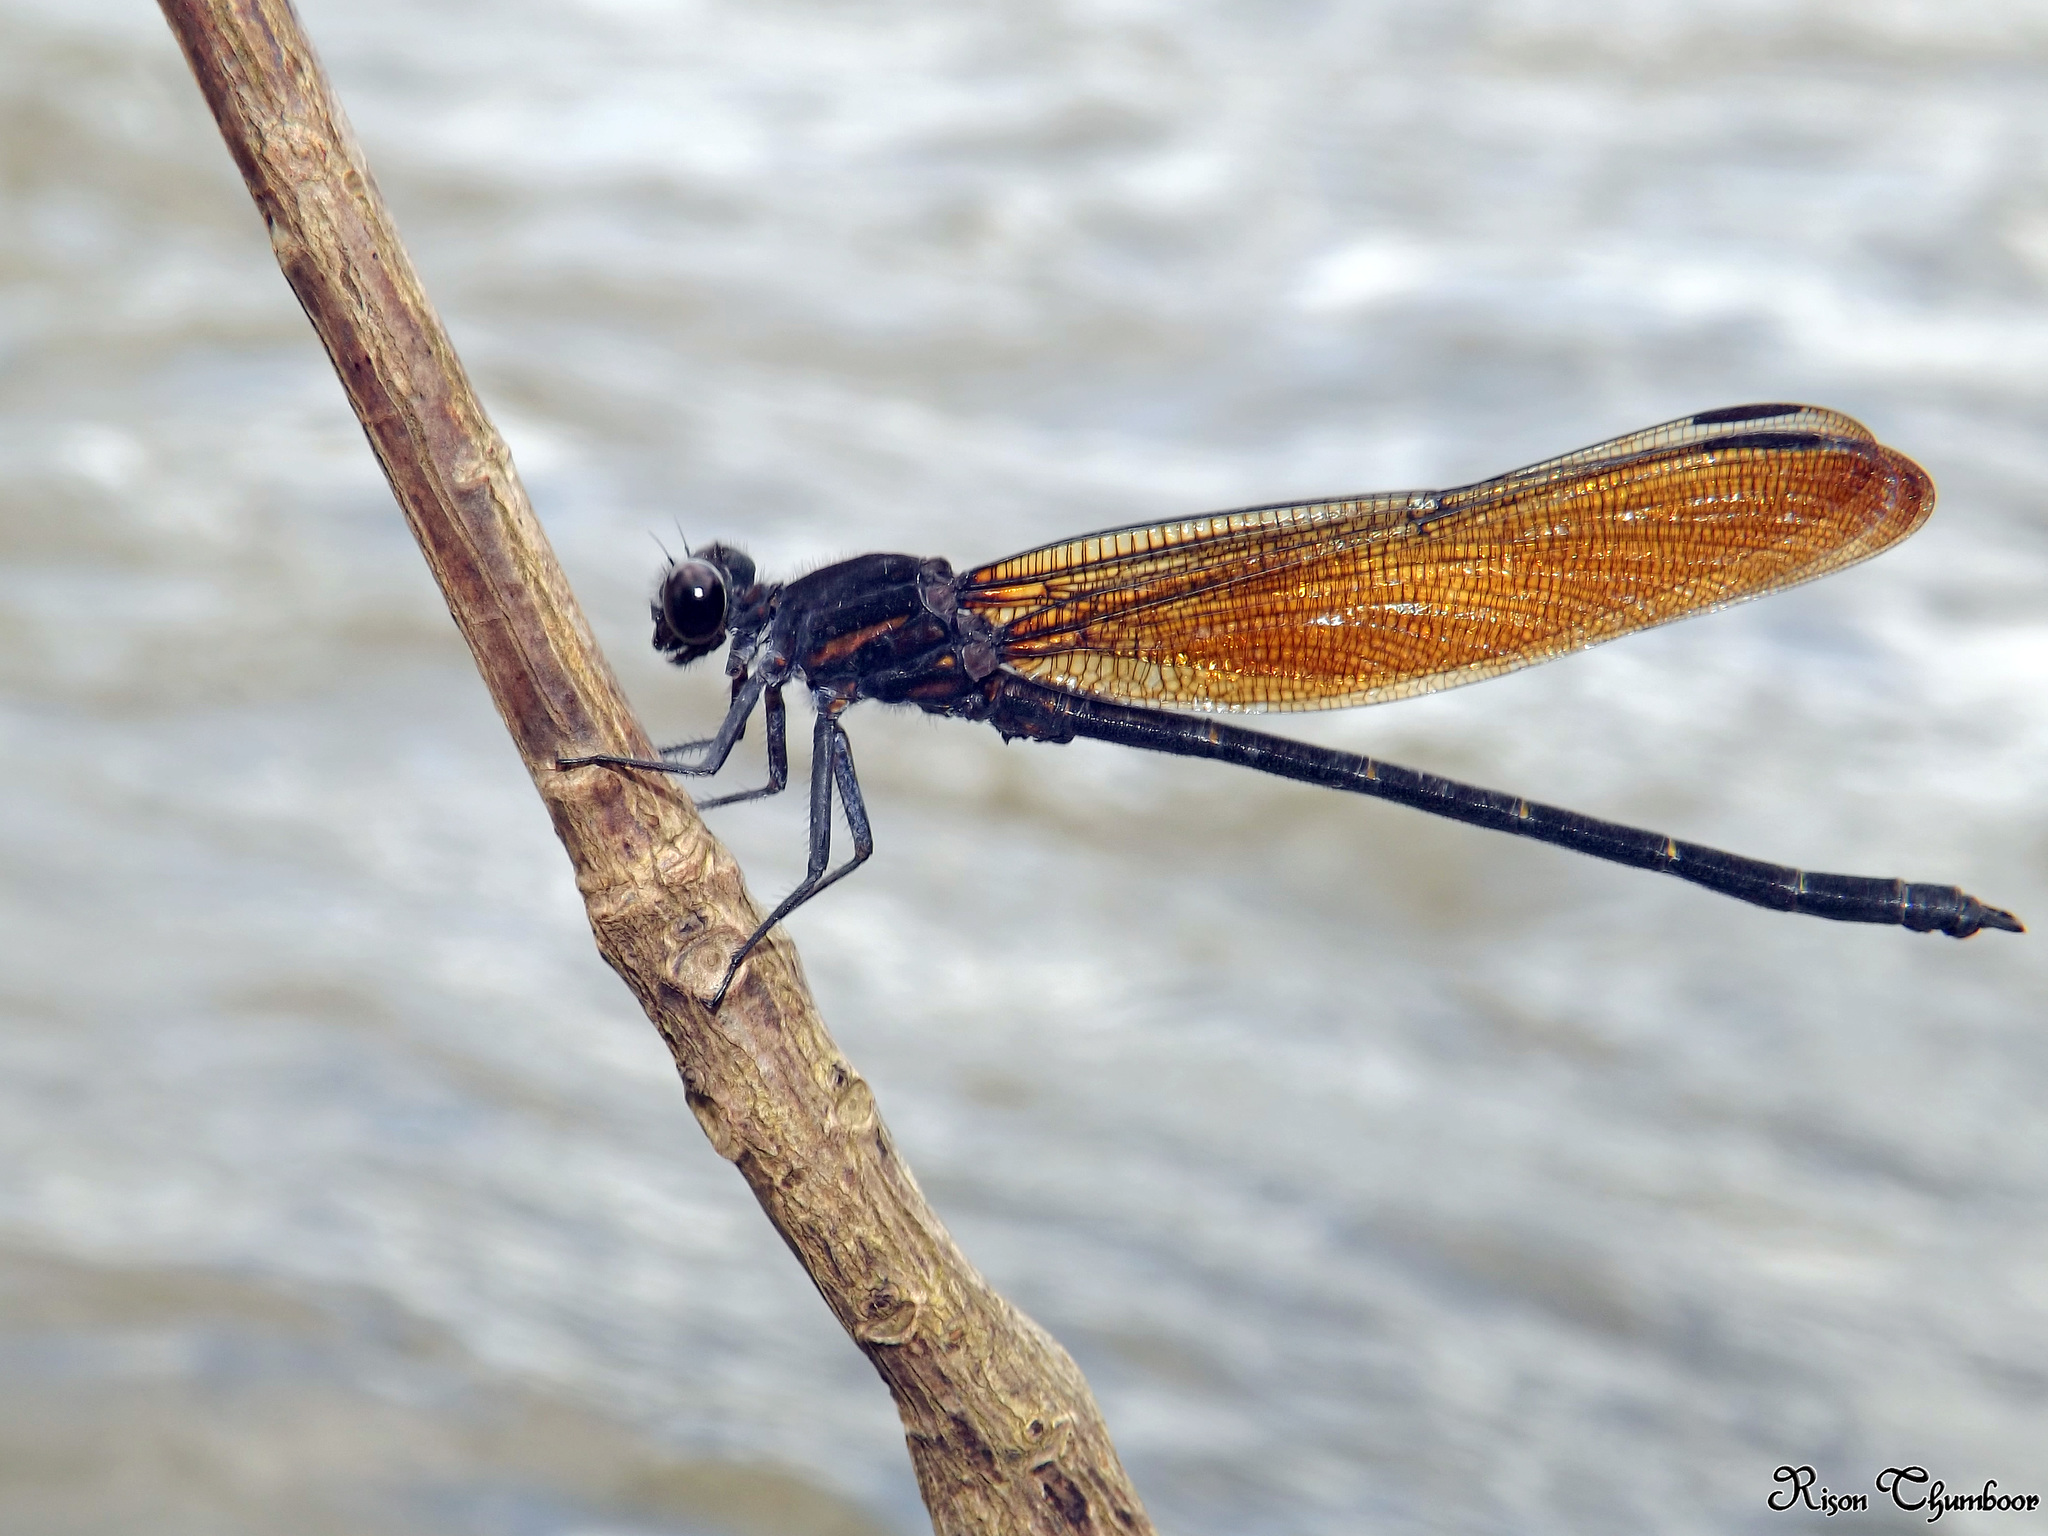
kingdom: Animalia
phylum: Arthropoda
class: Insecta
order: Odonata
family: Euphaeidae
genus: Dysphaea
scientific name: Dysphaea ethela
